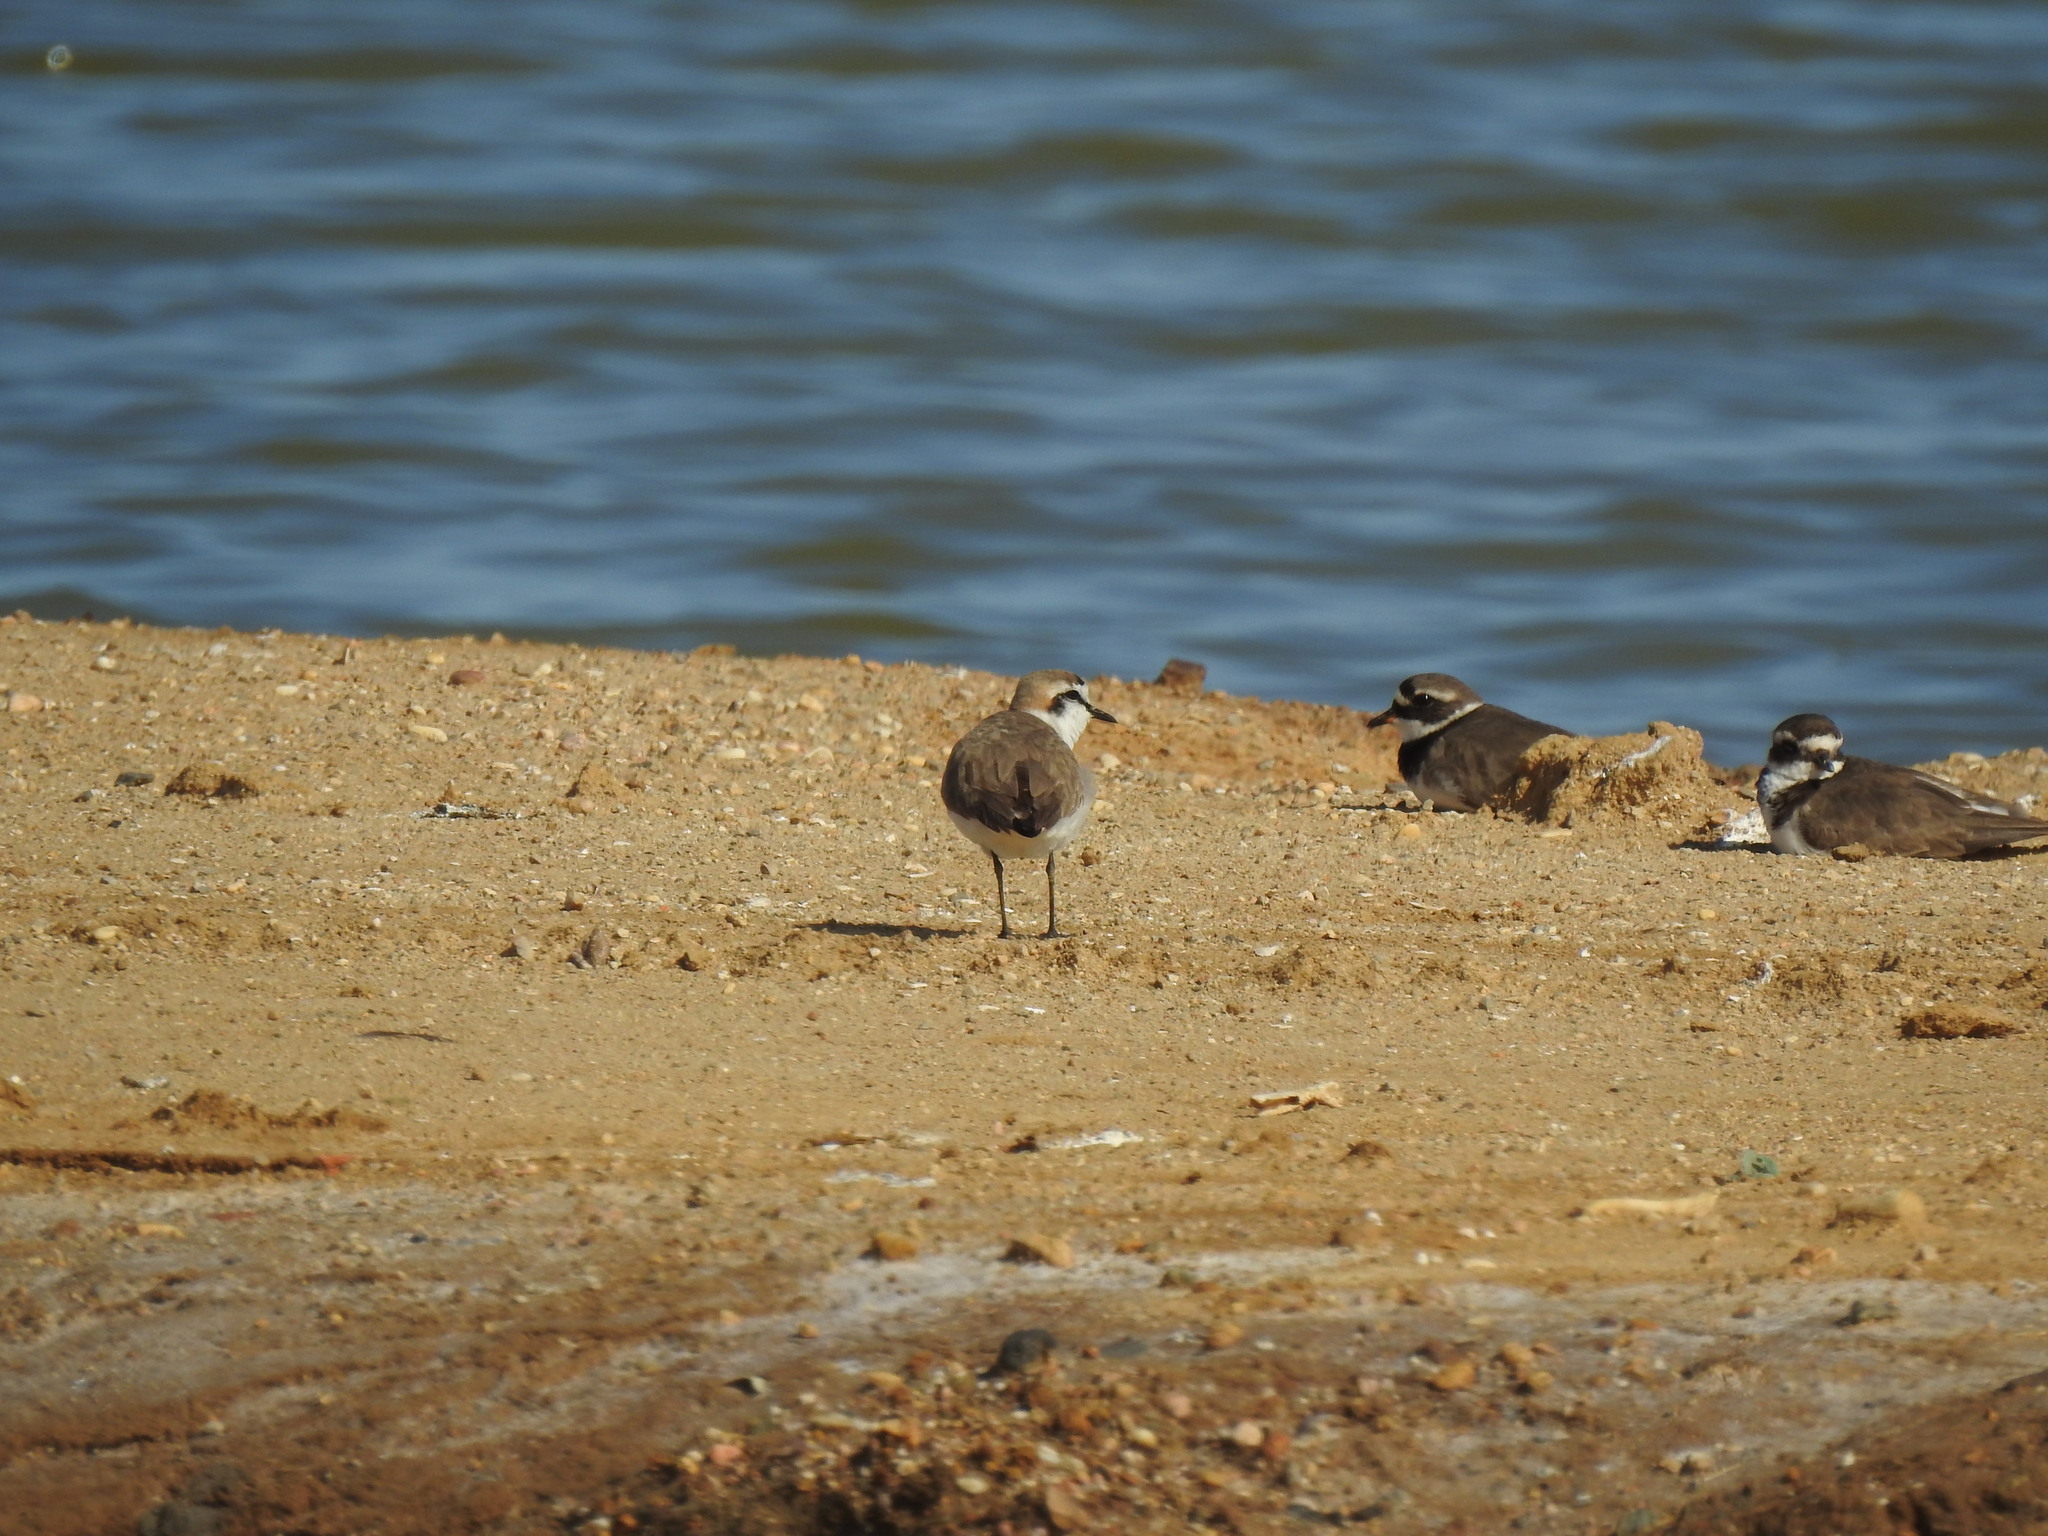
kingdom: Animalia
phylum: Chordata
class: Aves
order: Charadriiformes
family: Charadriidae
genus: Charadrius
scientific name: Charadrius alexandrinus
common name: Kentish plover
